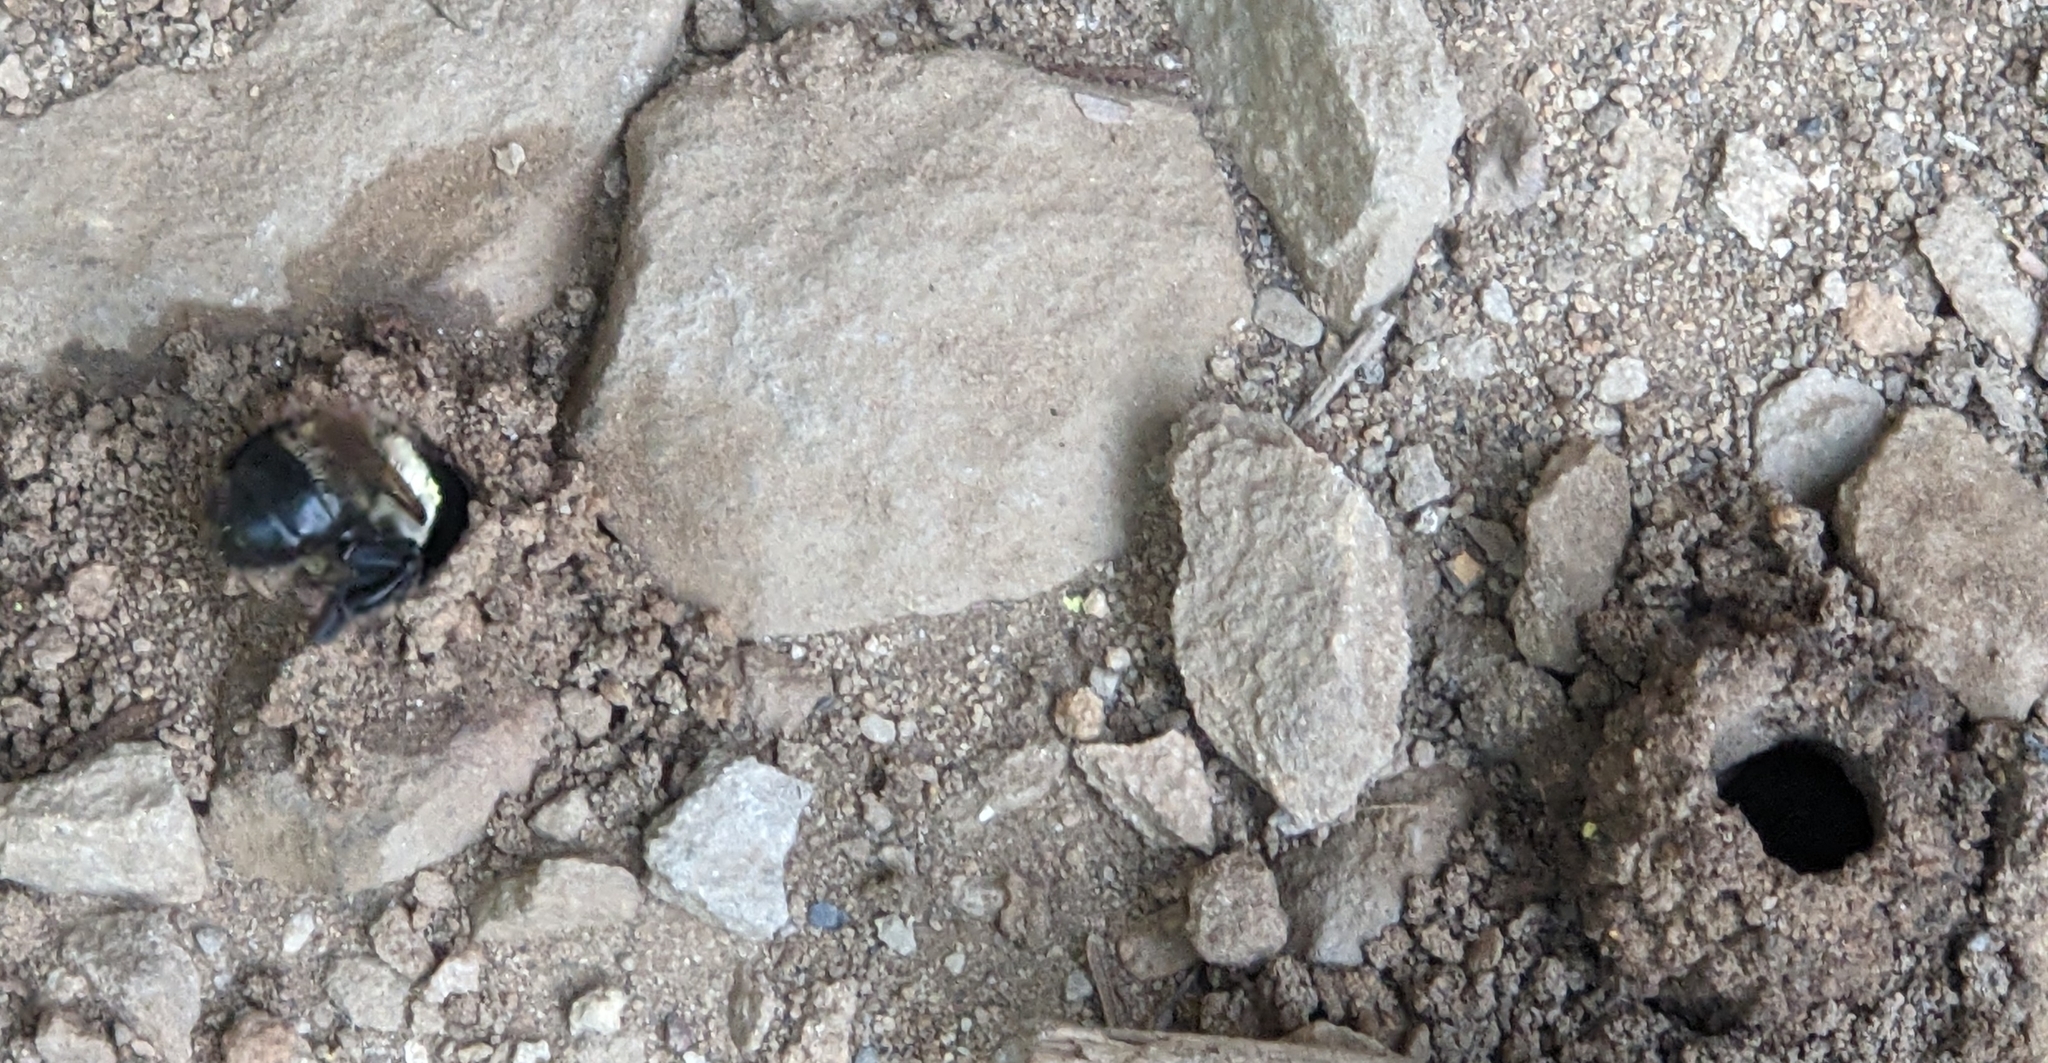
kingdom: Animalia
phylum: Arthropoda
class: Insecta
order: Hymenoptera
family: Apidae
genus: Anthophora
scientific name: Anthophora abrupta
